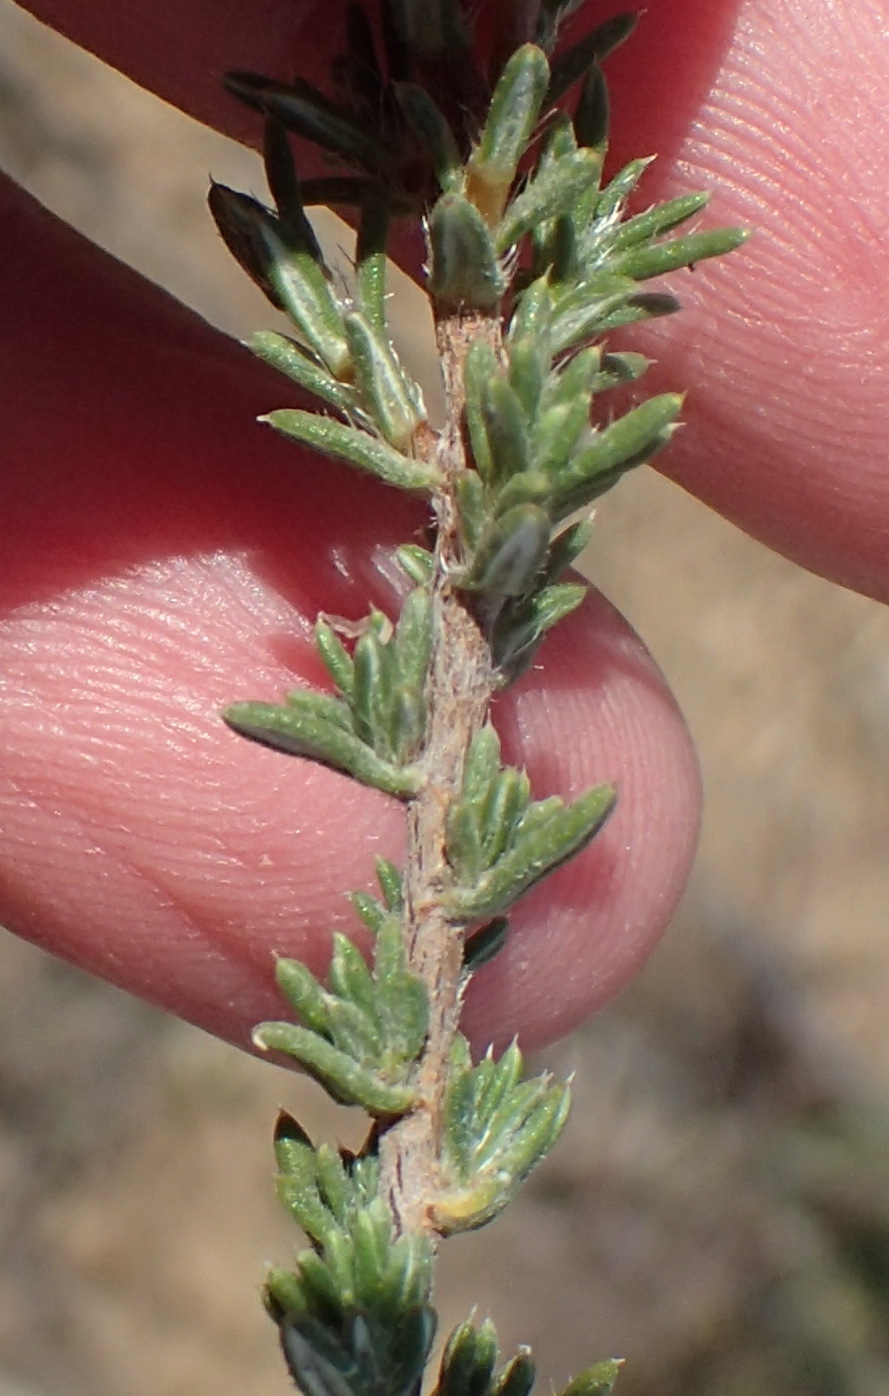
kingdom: Plantae
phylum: Tracheophyta
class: Magnoliopsida
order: Asterales
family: Asteraceae
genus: Gorteria
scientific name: Gorteria alienata
